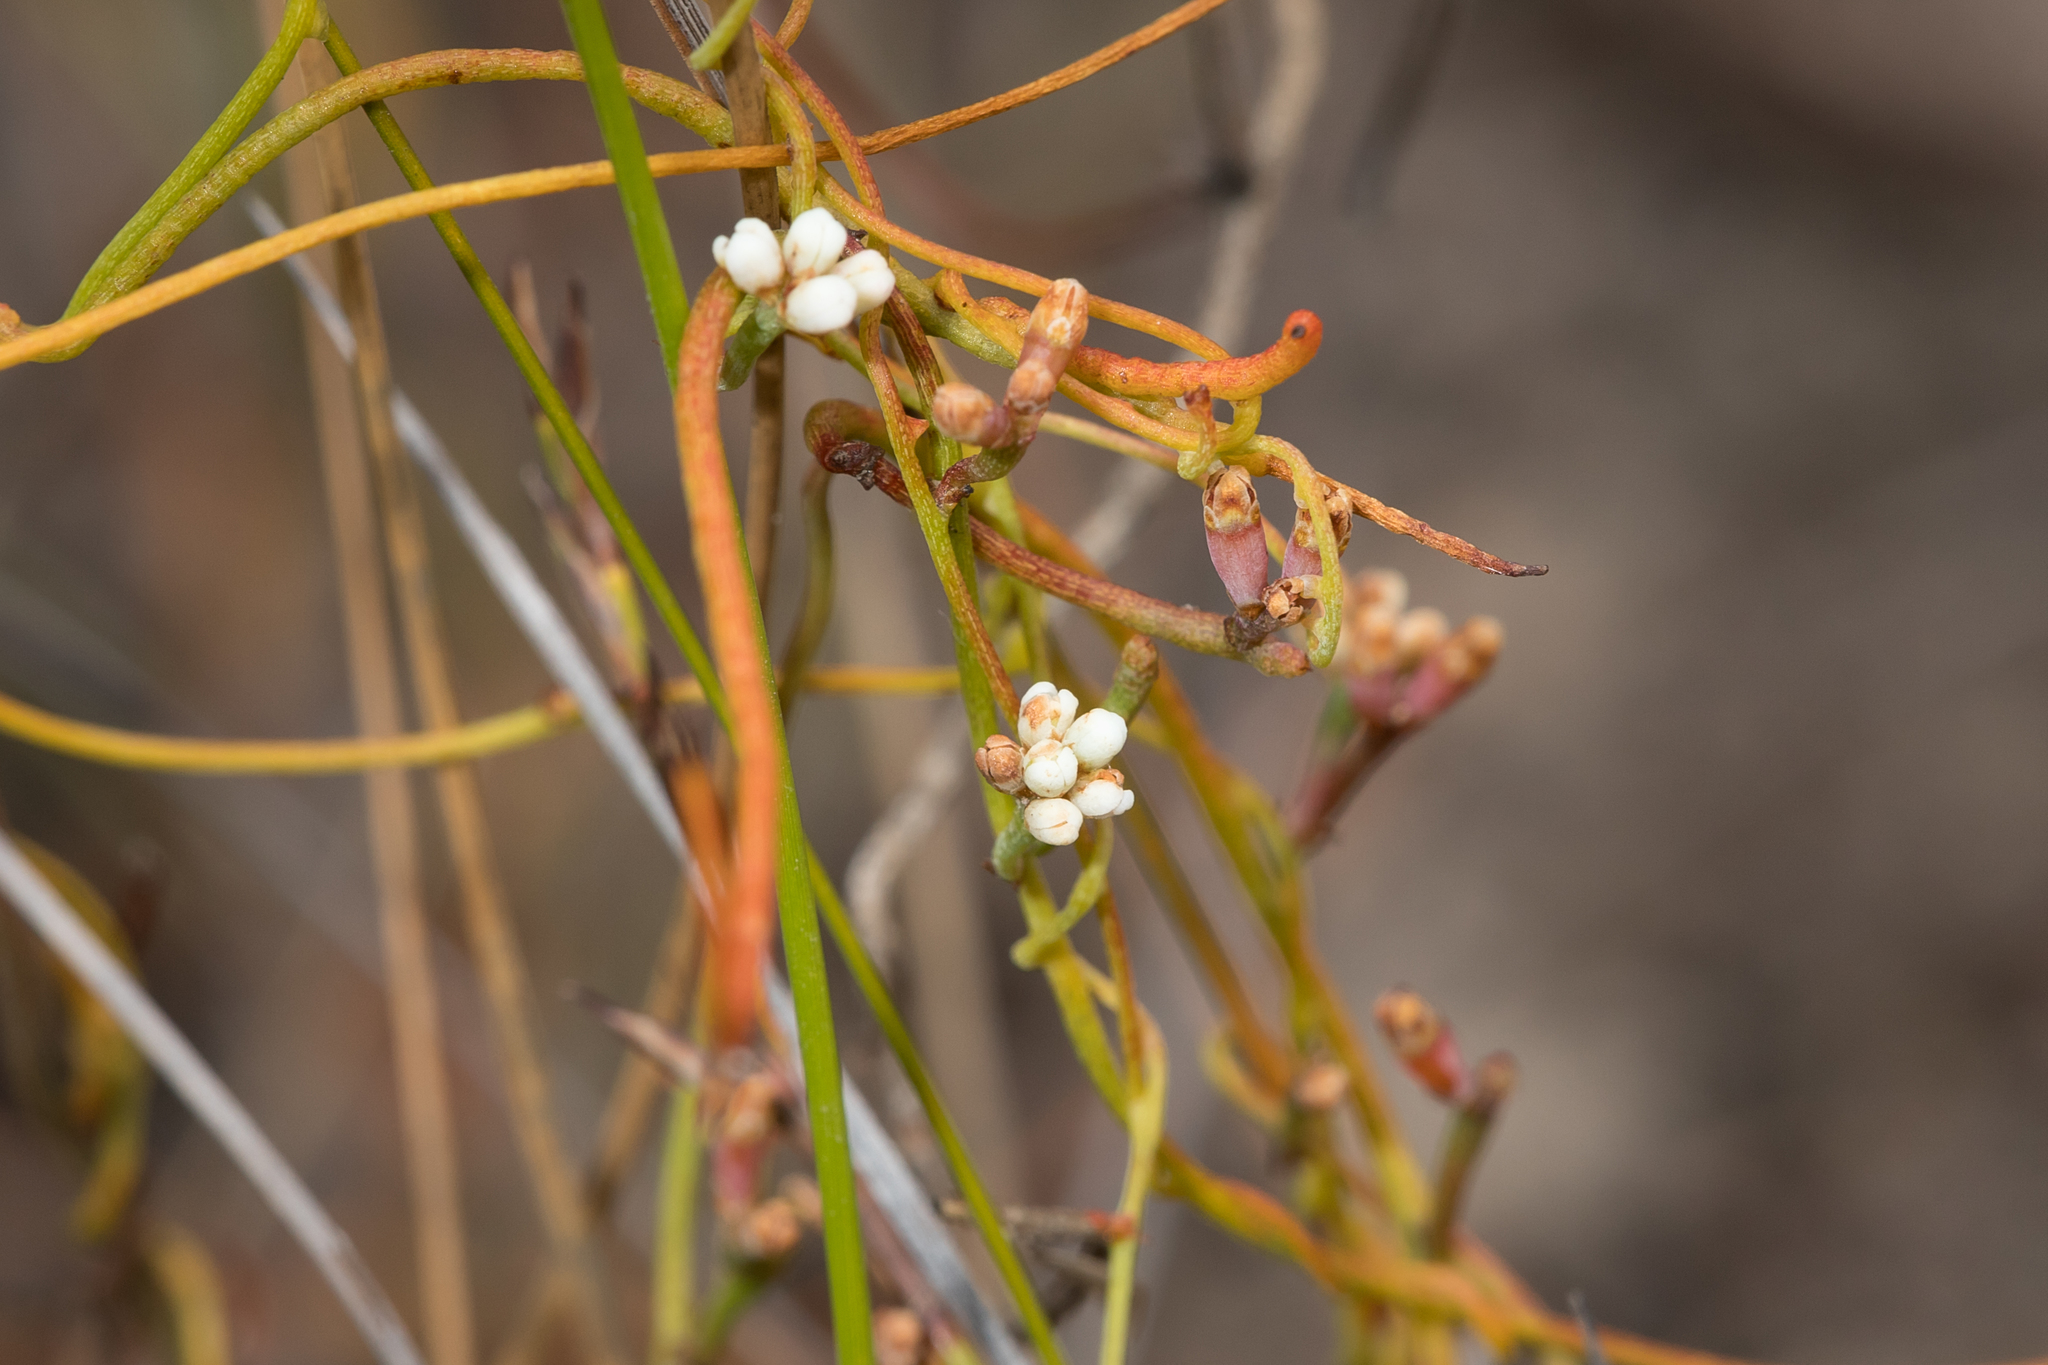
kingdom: Plantae
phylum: Tracheophyta
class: Magnoliopsida
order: Laurales
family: Lauraceae
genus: Cassytha
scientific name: Cassytha glabella
